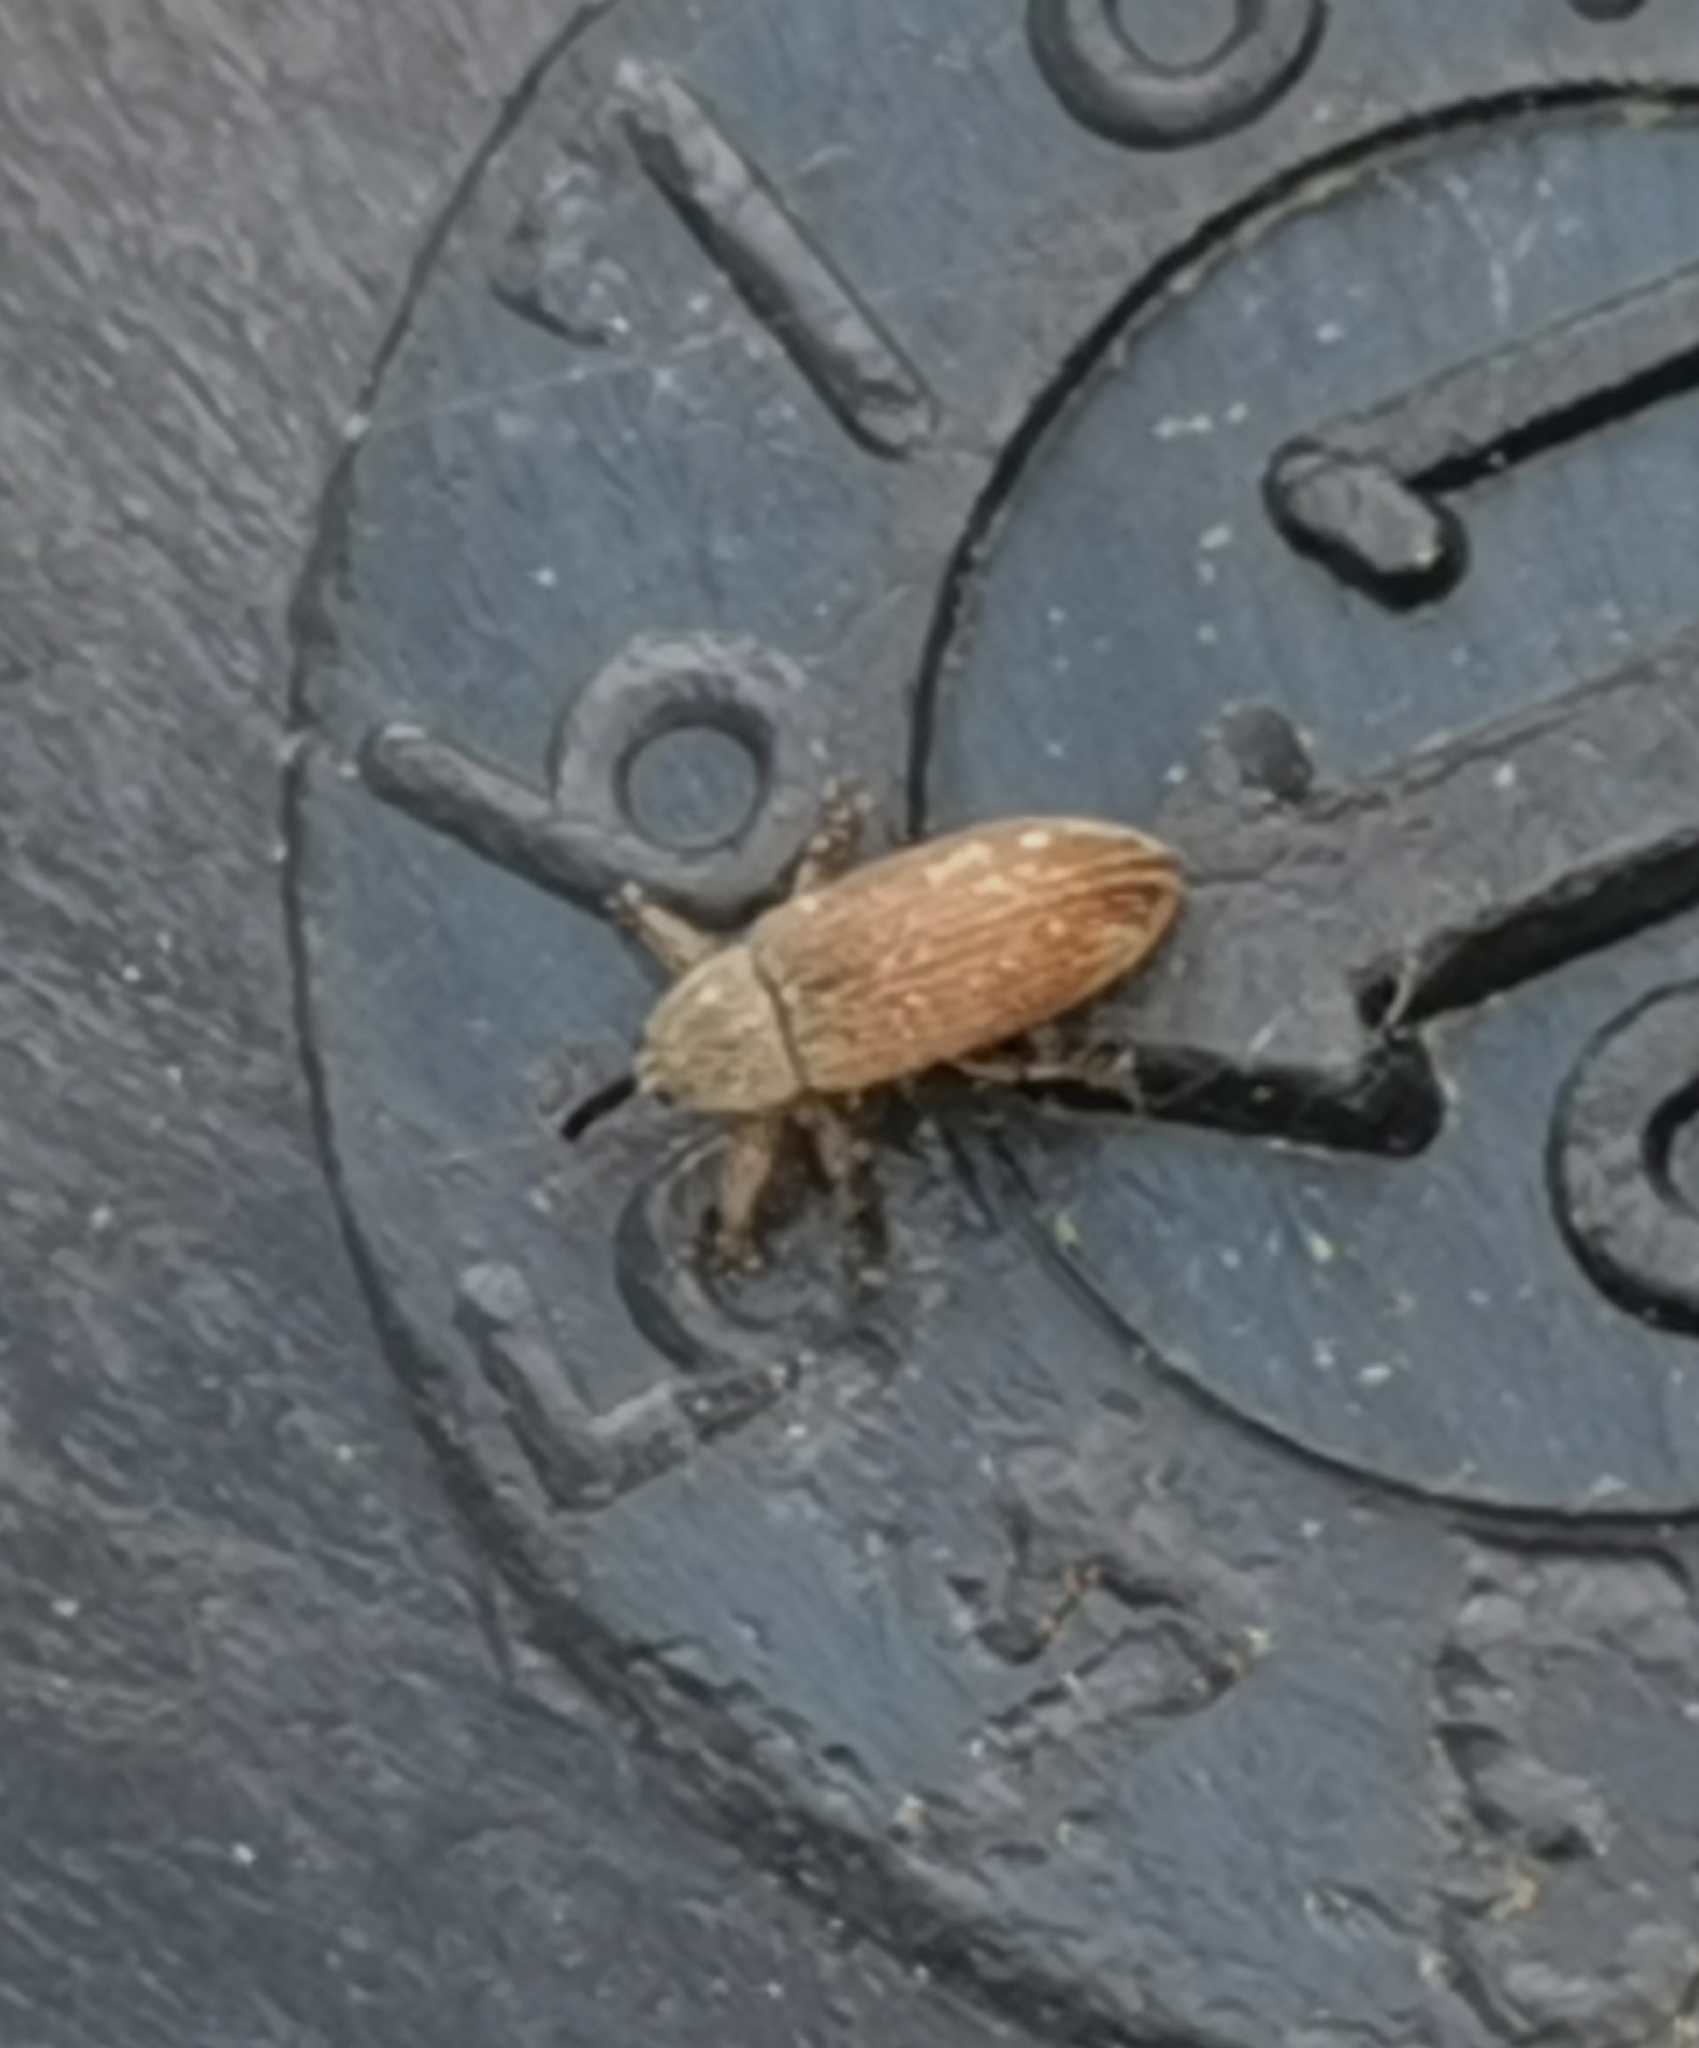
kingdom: Animalia
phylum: Arthropoda
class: Insecta
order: Coleoptera
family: Curculionidae
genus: Brachonyx
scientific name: Brachonyx pineti
